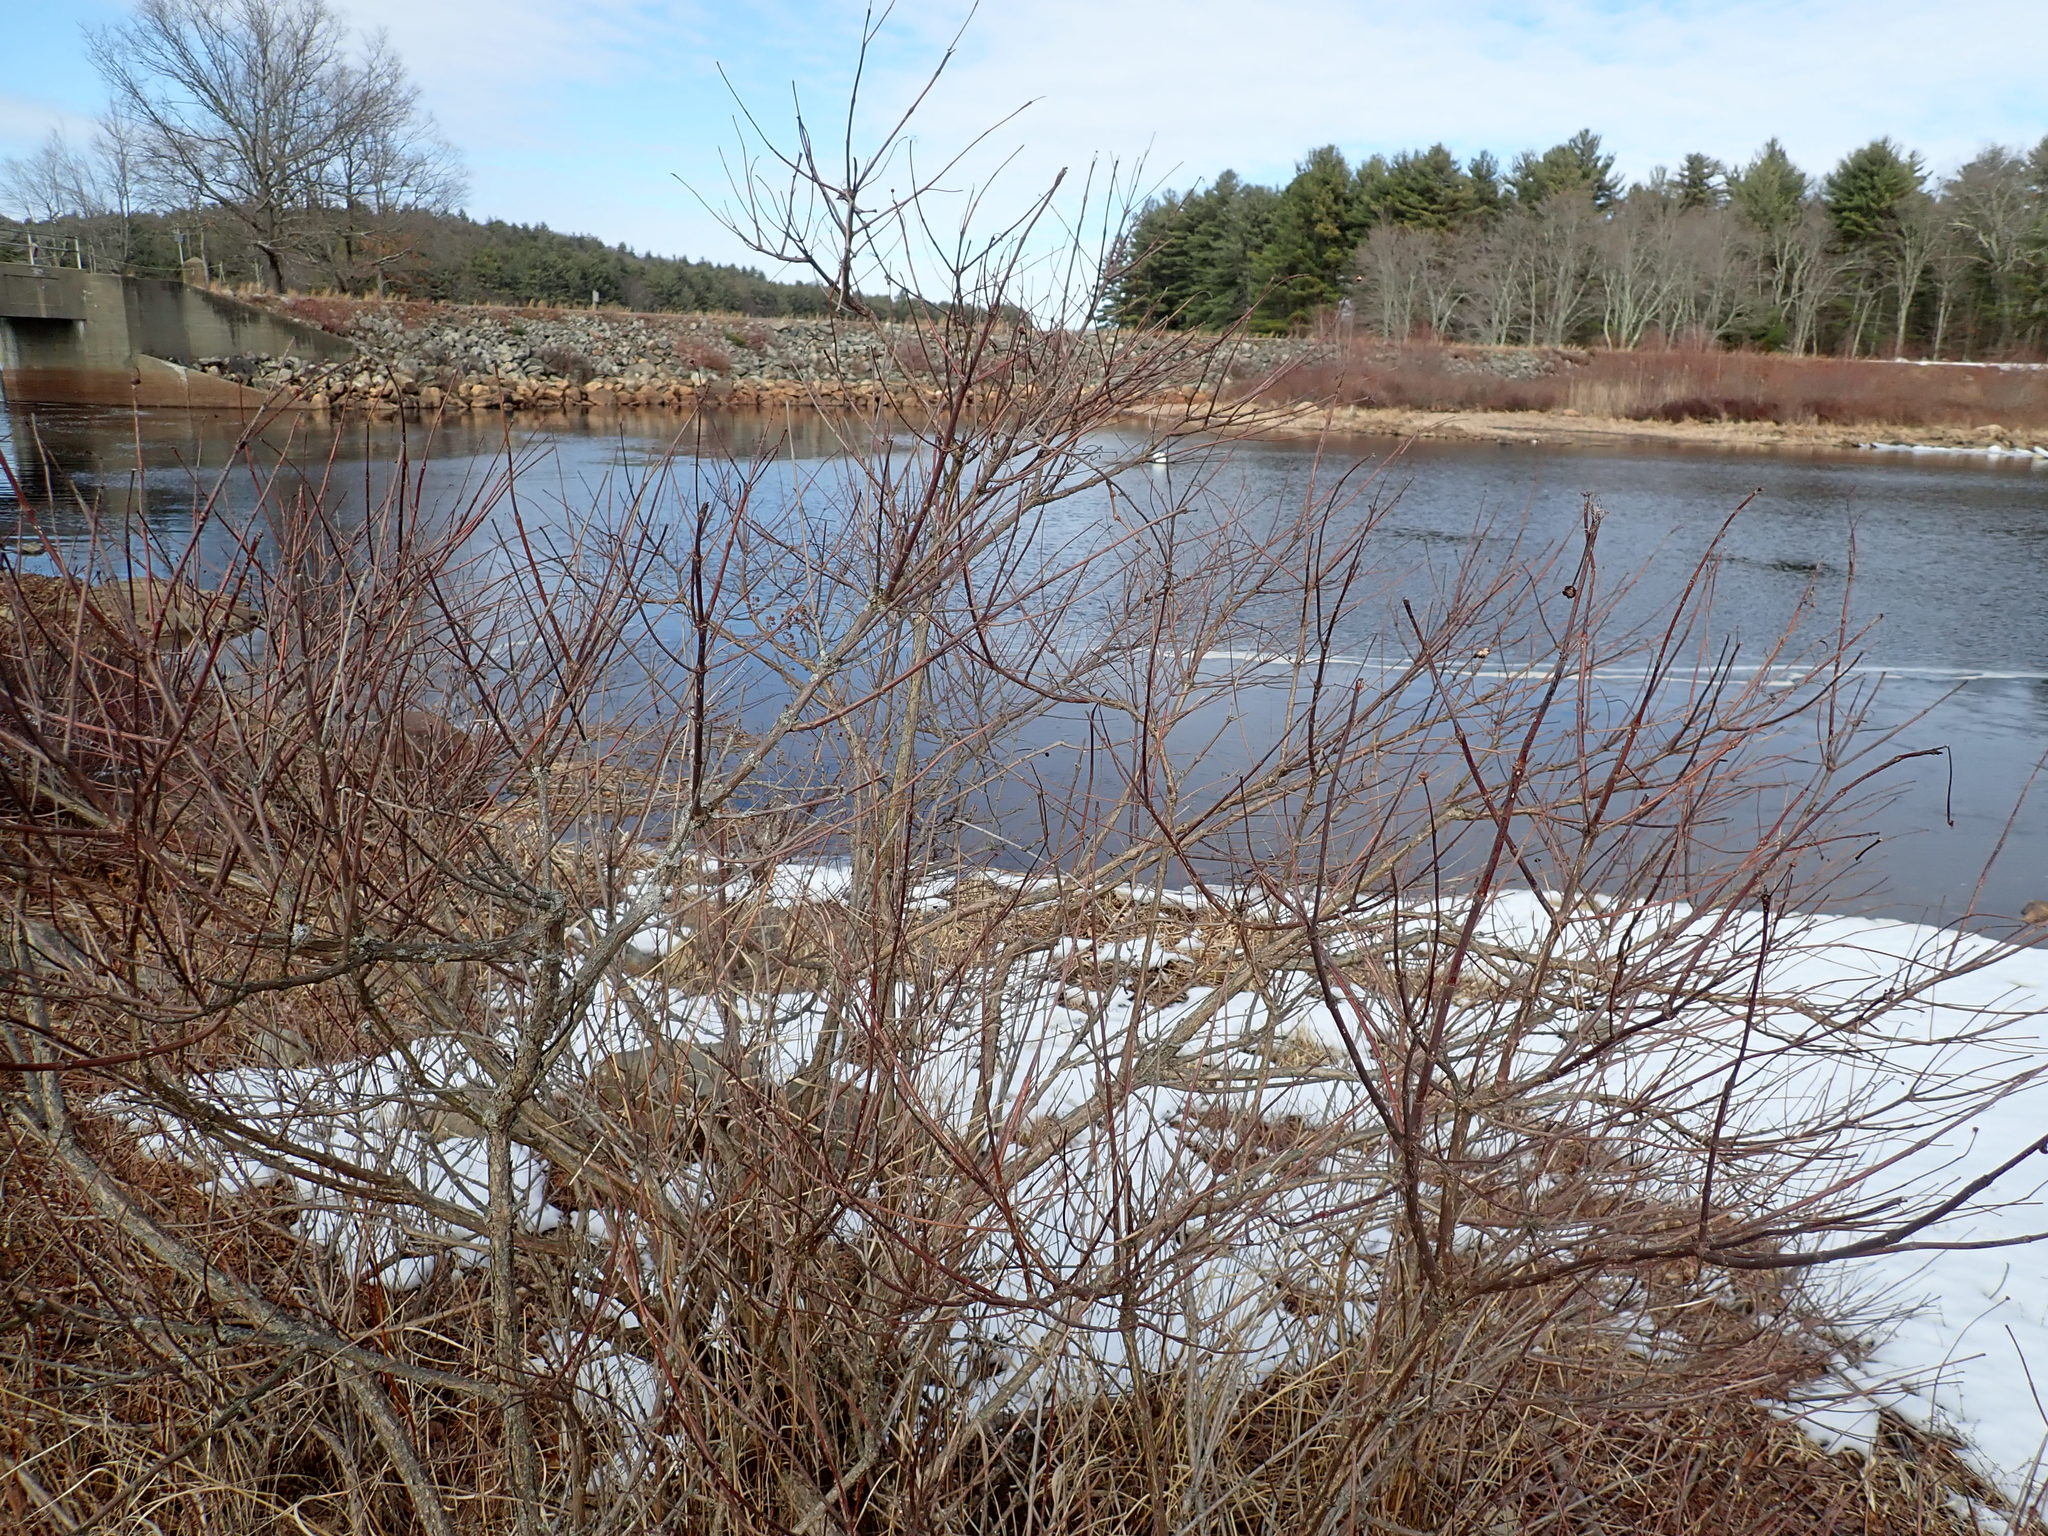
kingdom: Plantae
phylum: Tracheophyta
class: Magnoliopsida
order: Gentianales
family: Rubiaceae
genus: Cephalanthus
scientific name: Cephalanthus occidentalis
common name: Button-willow
